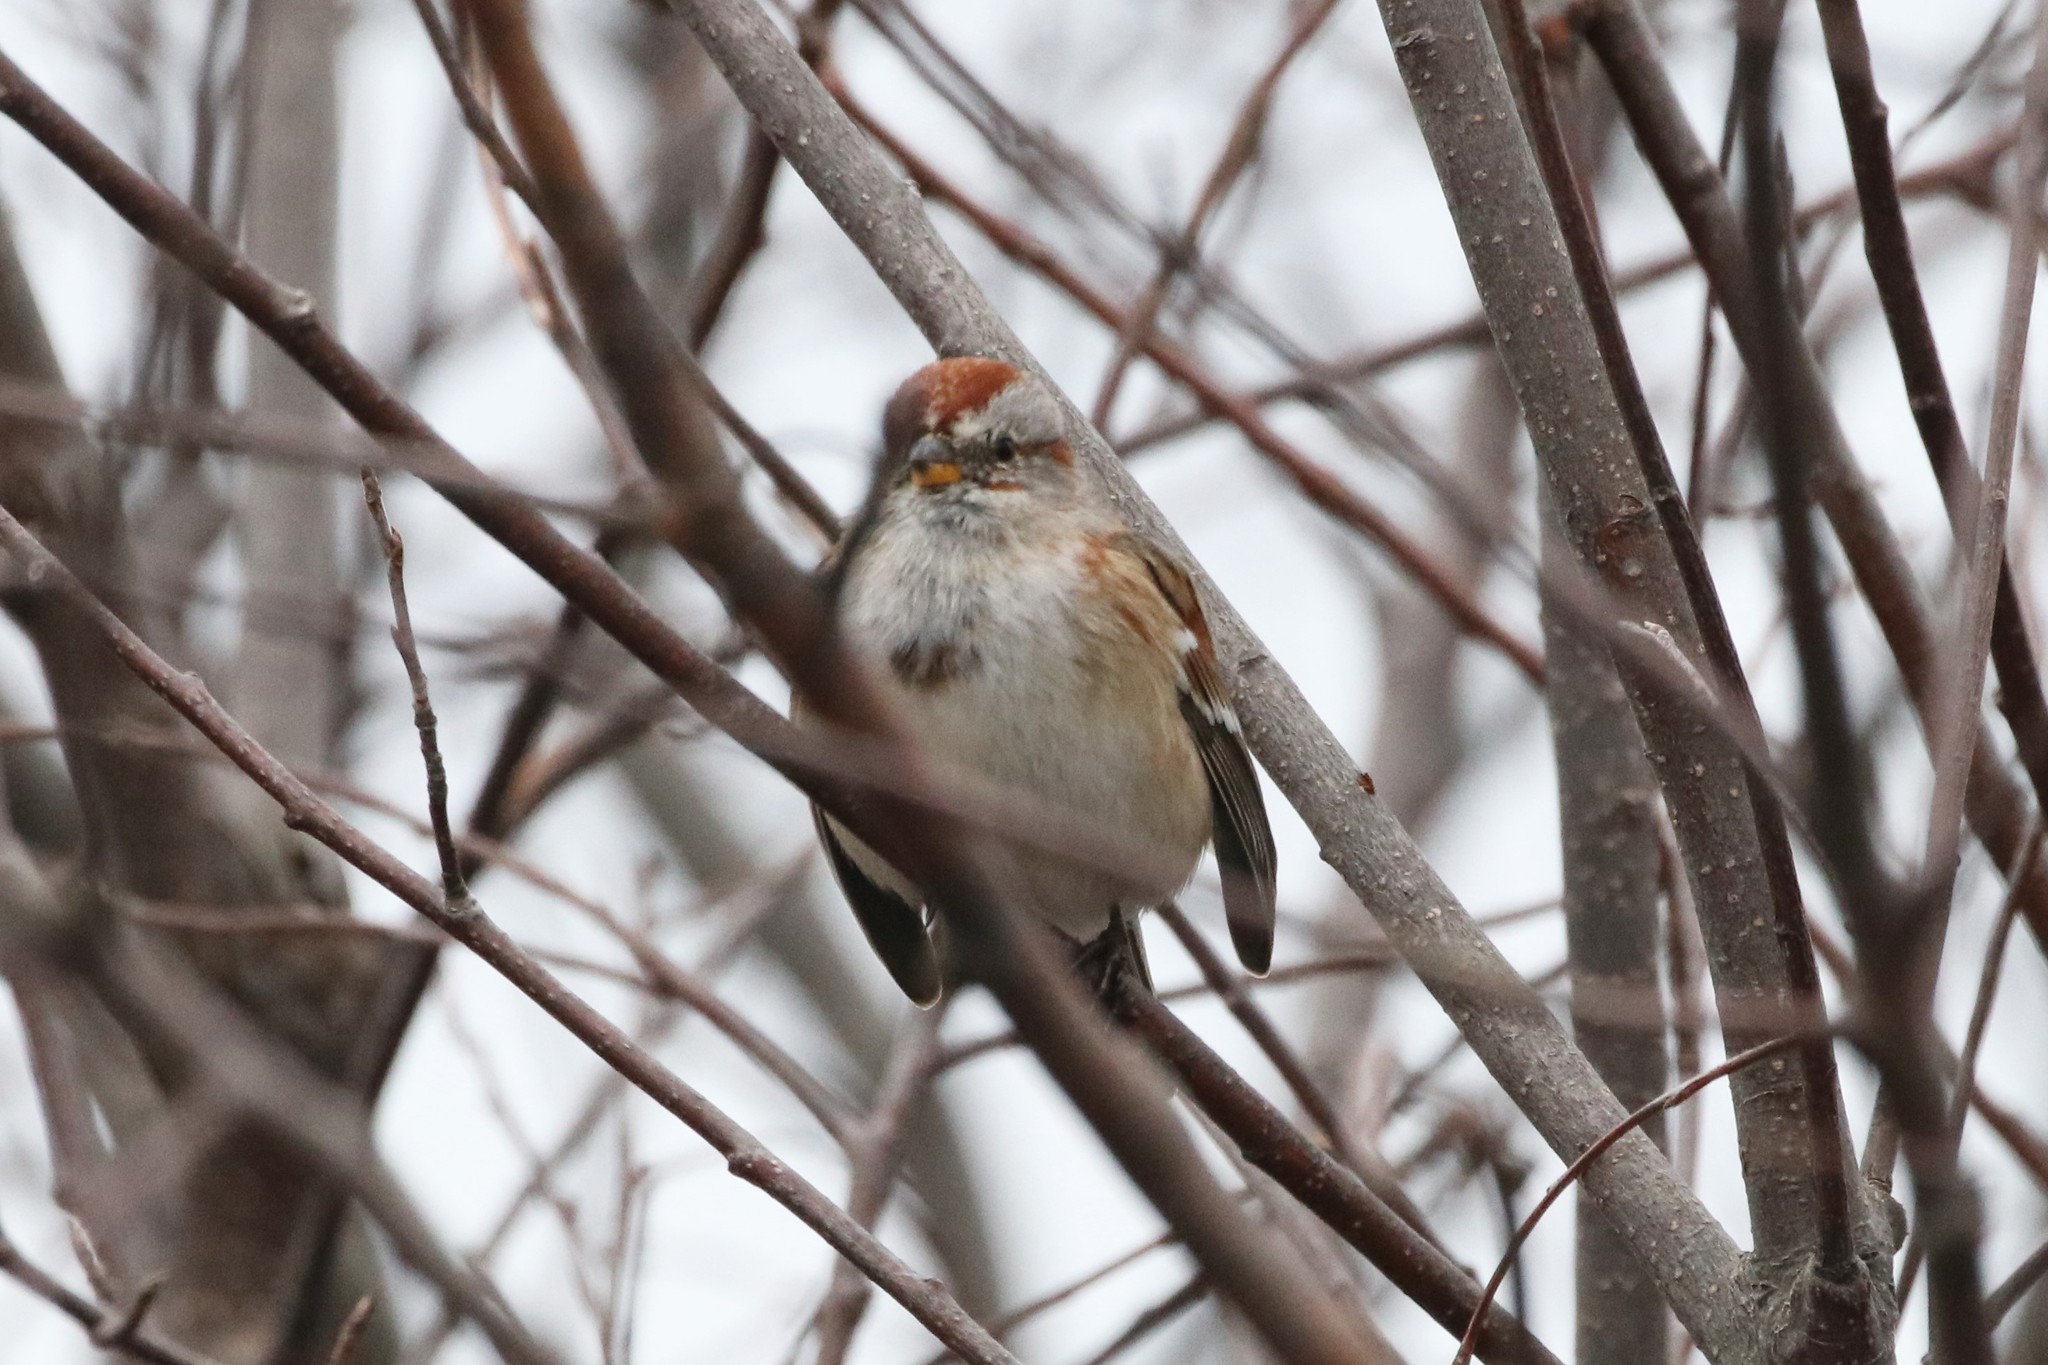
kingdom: Animalia
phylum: Chordata
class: Aves
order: Passeriformes
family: Passerellidae
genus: Spizelloides
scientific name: Spizelloides arborea
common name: American tree sparrow
